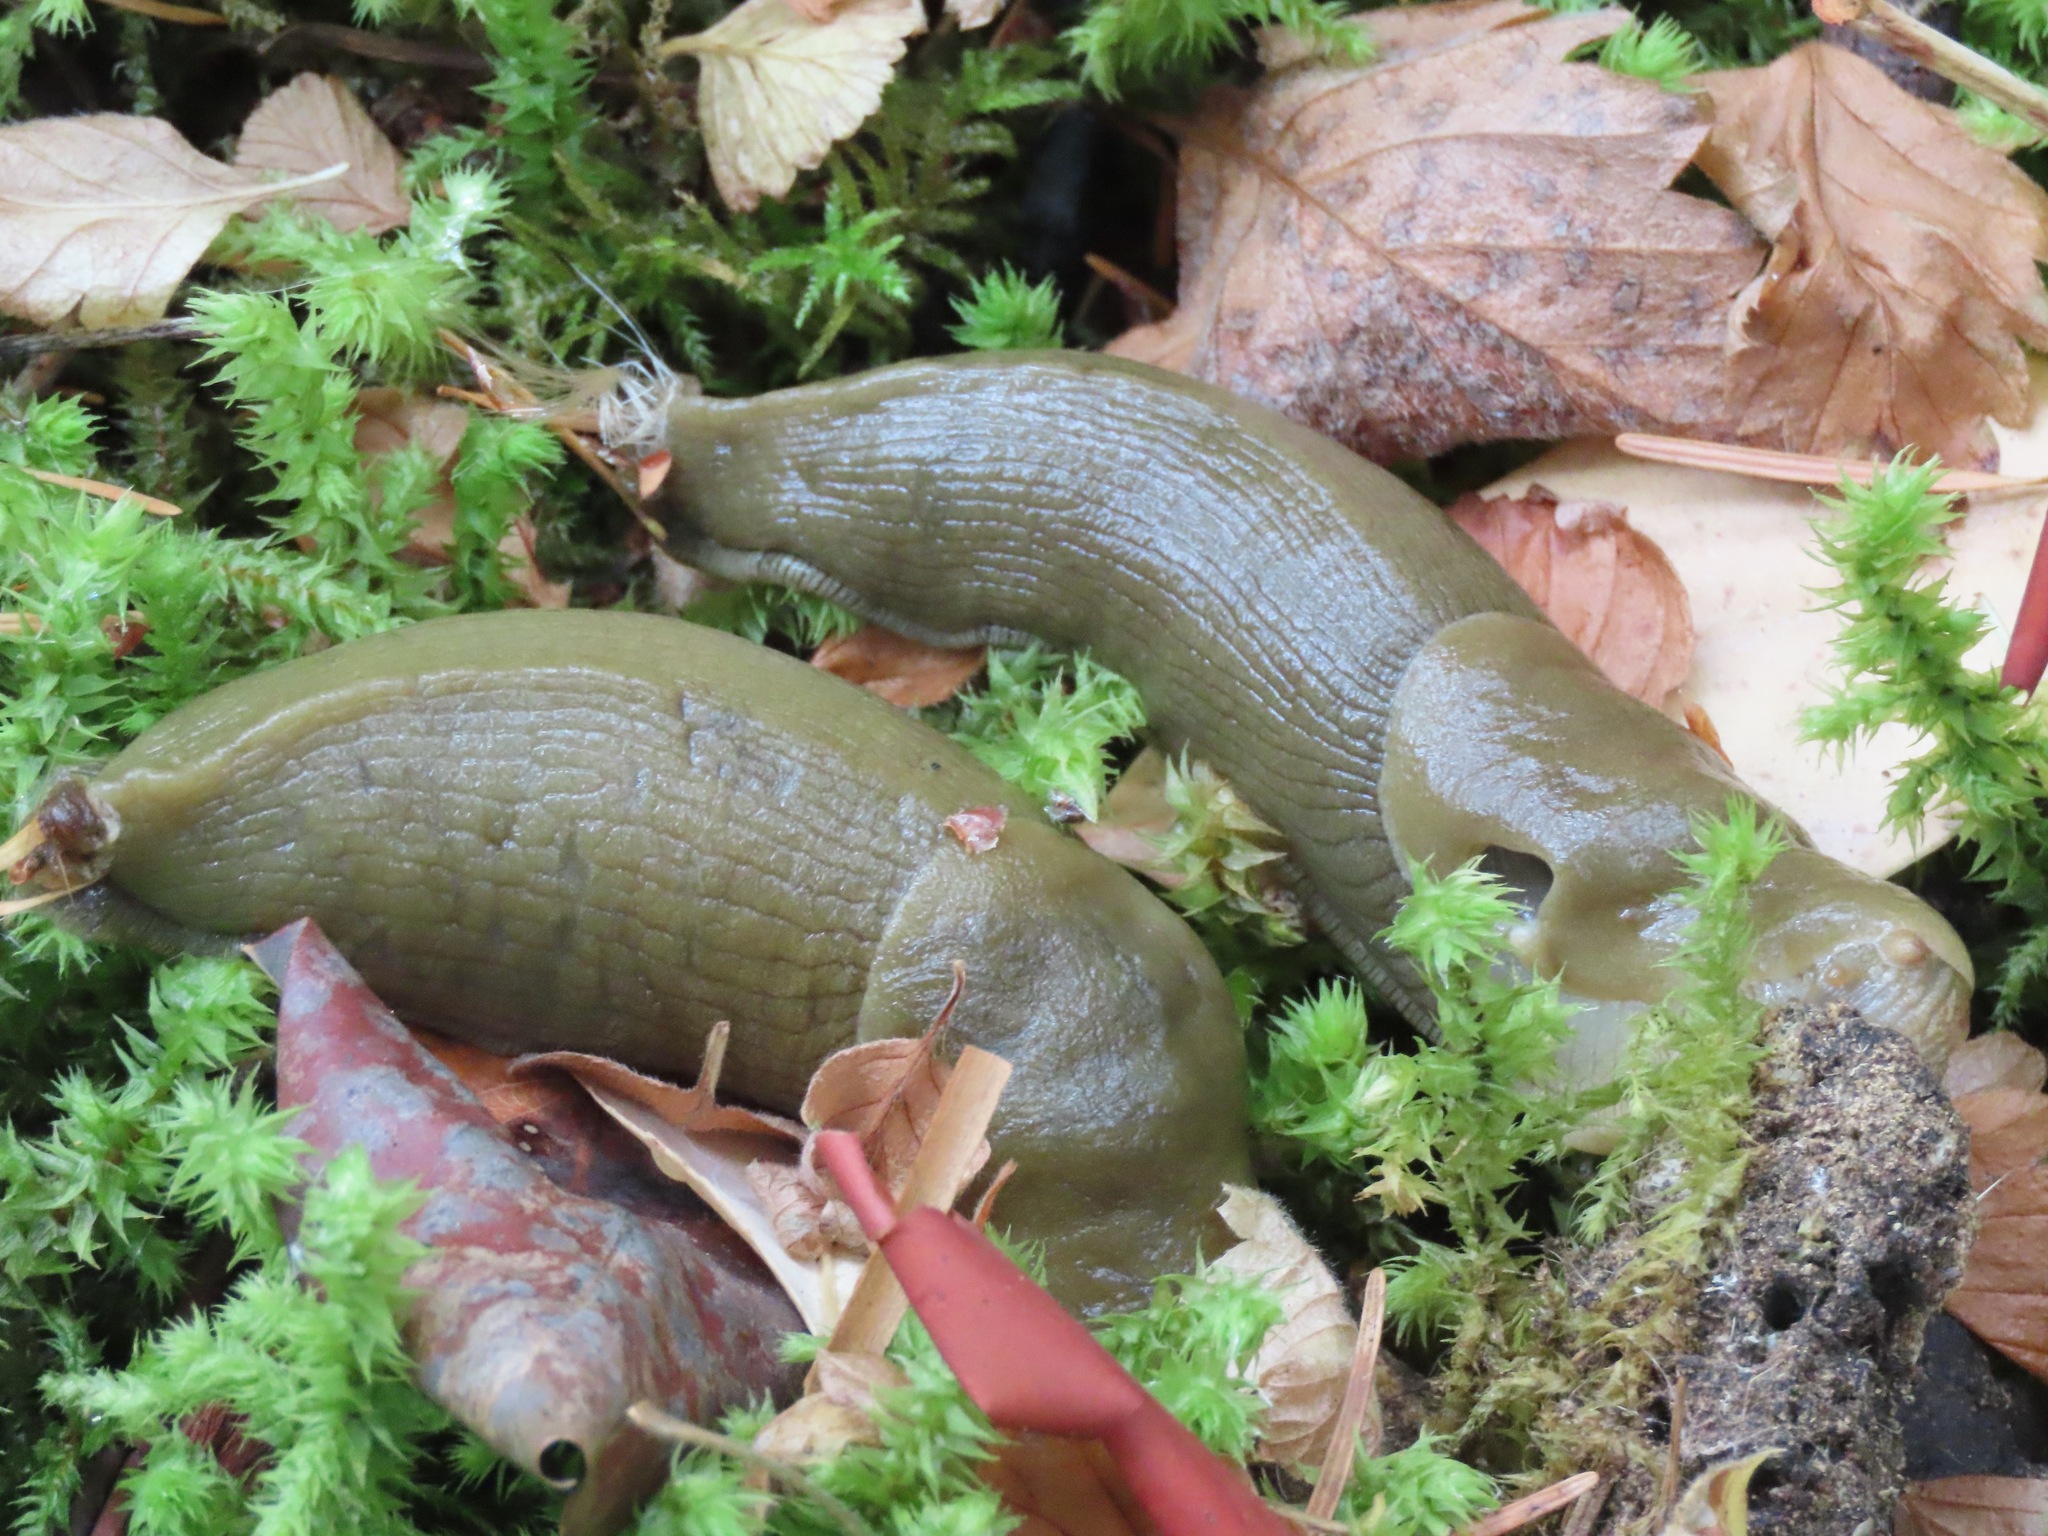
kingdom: Animalia
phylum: Mollusca
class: Gastropoda
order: Stylommatophora
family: Ariolimacidae
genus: Ariolimax
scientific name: Ariolimax columbianus
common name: Pacific banana slug
